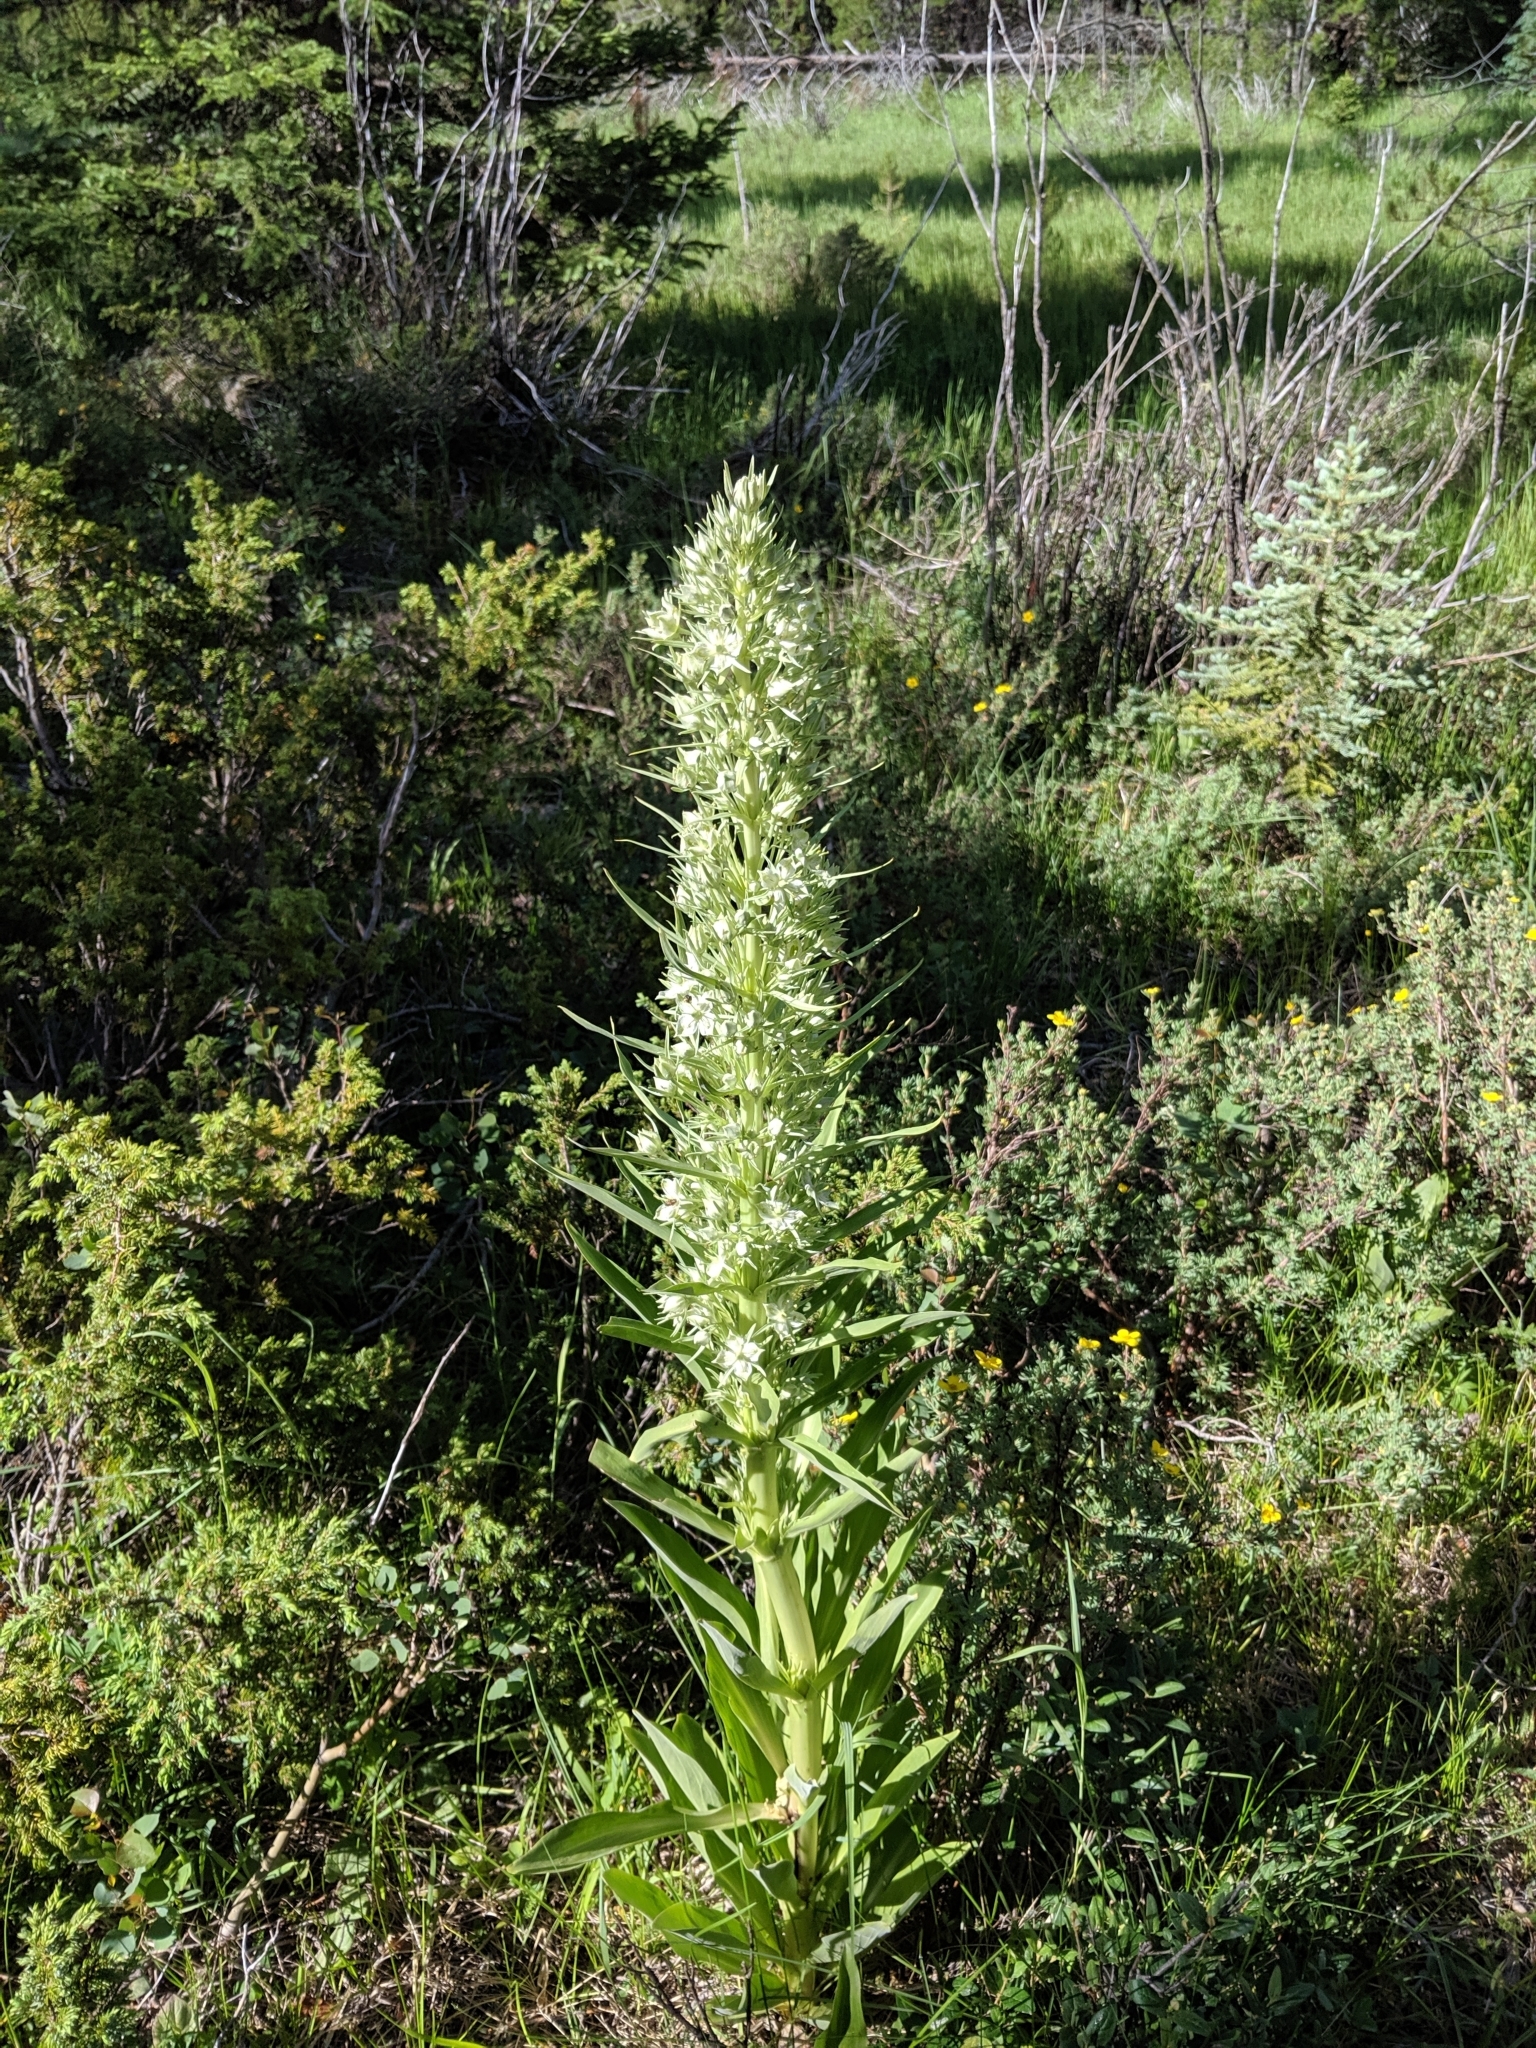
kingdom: Plantae
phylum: Tracheophyta
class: Magnoliopsida
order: Gentianales
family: Gentianaceae
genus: Frasera
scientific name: Frasera speciosa
